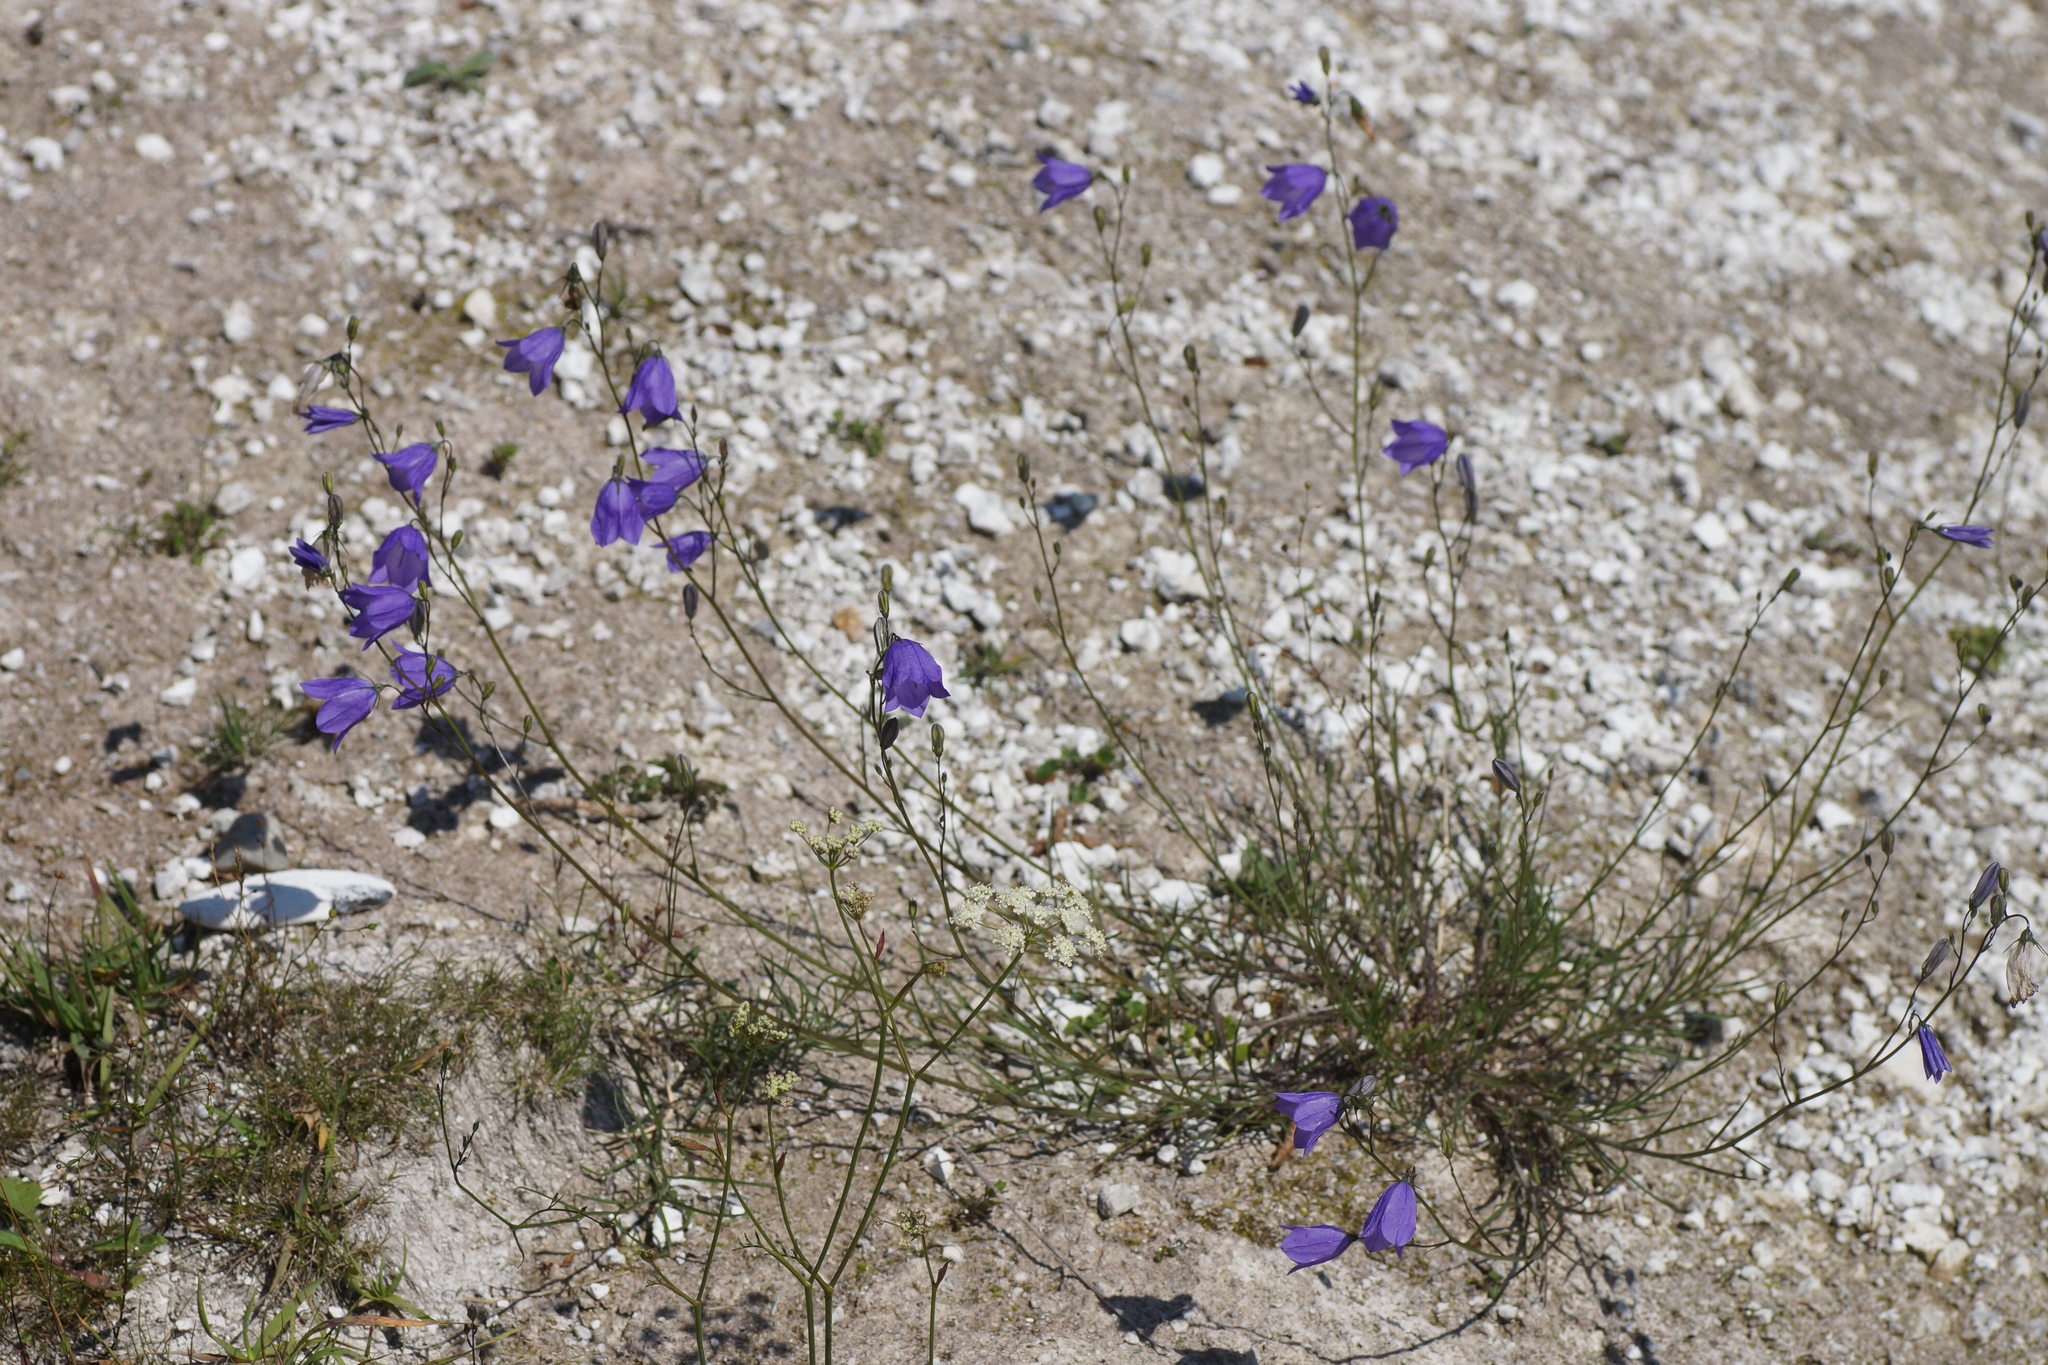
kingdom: Plantae
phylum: Tracheophyta
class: Magnoliopsida
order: Asterales
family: Campanulaceae
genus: Campanula
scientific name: Campanula rotundifolia
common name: Harebell
